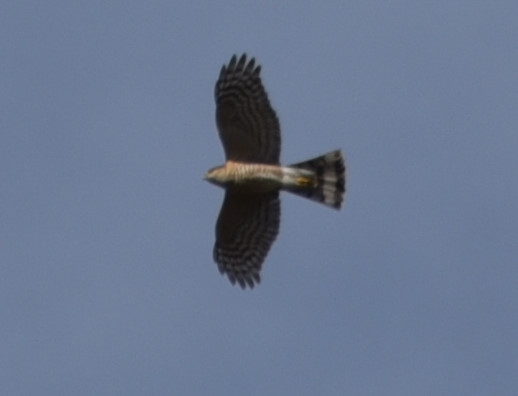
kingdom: Animalia
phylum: Chordata
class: Aves
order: Accipitriformes
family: Accipitridae
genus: Accipiter
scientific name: Accipiter striatus
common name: Sharp-shinned hawk
